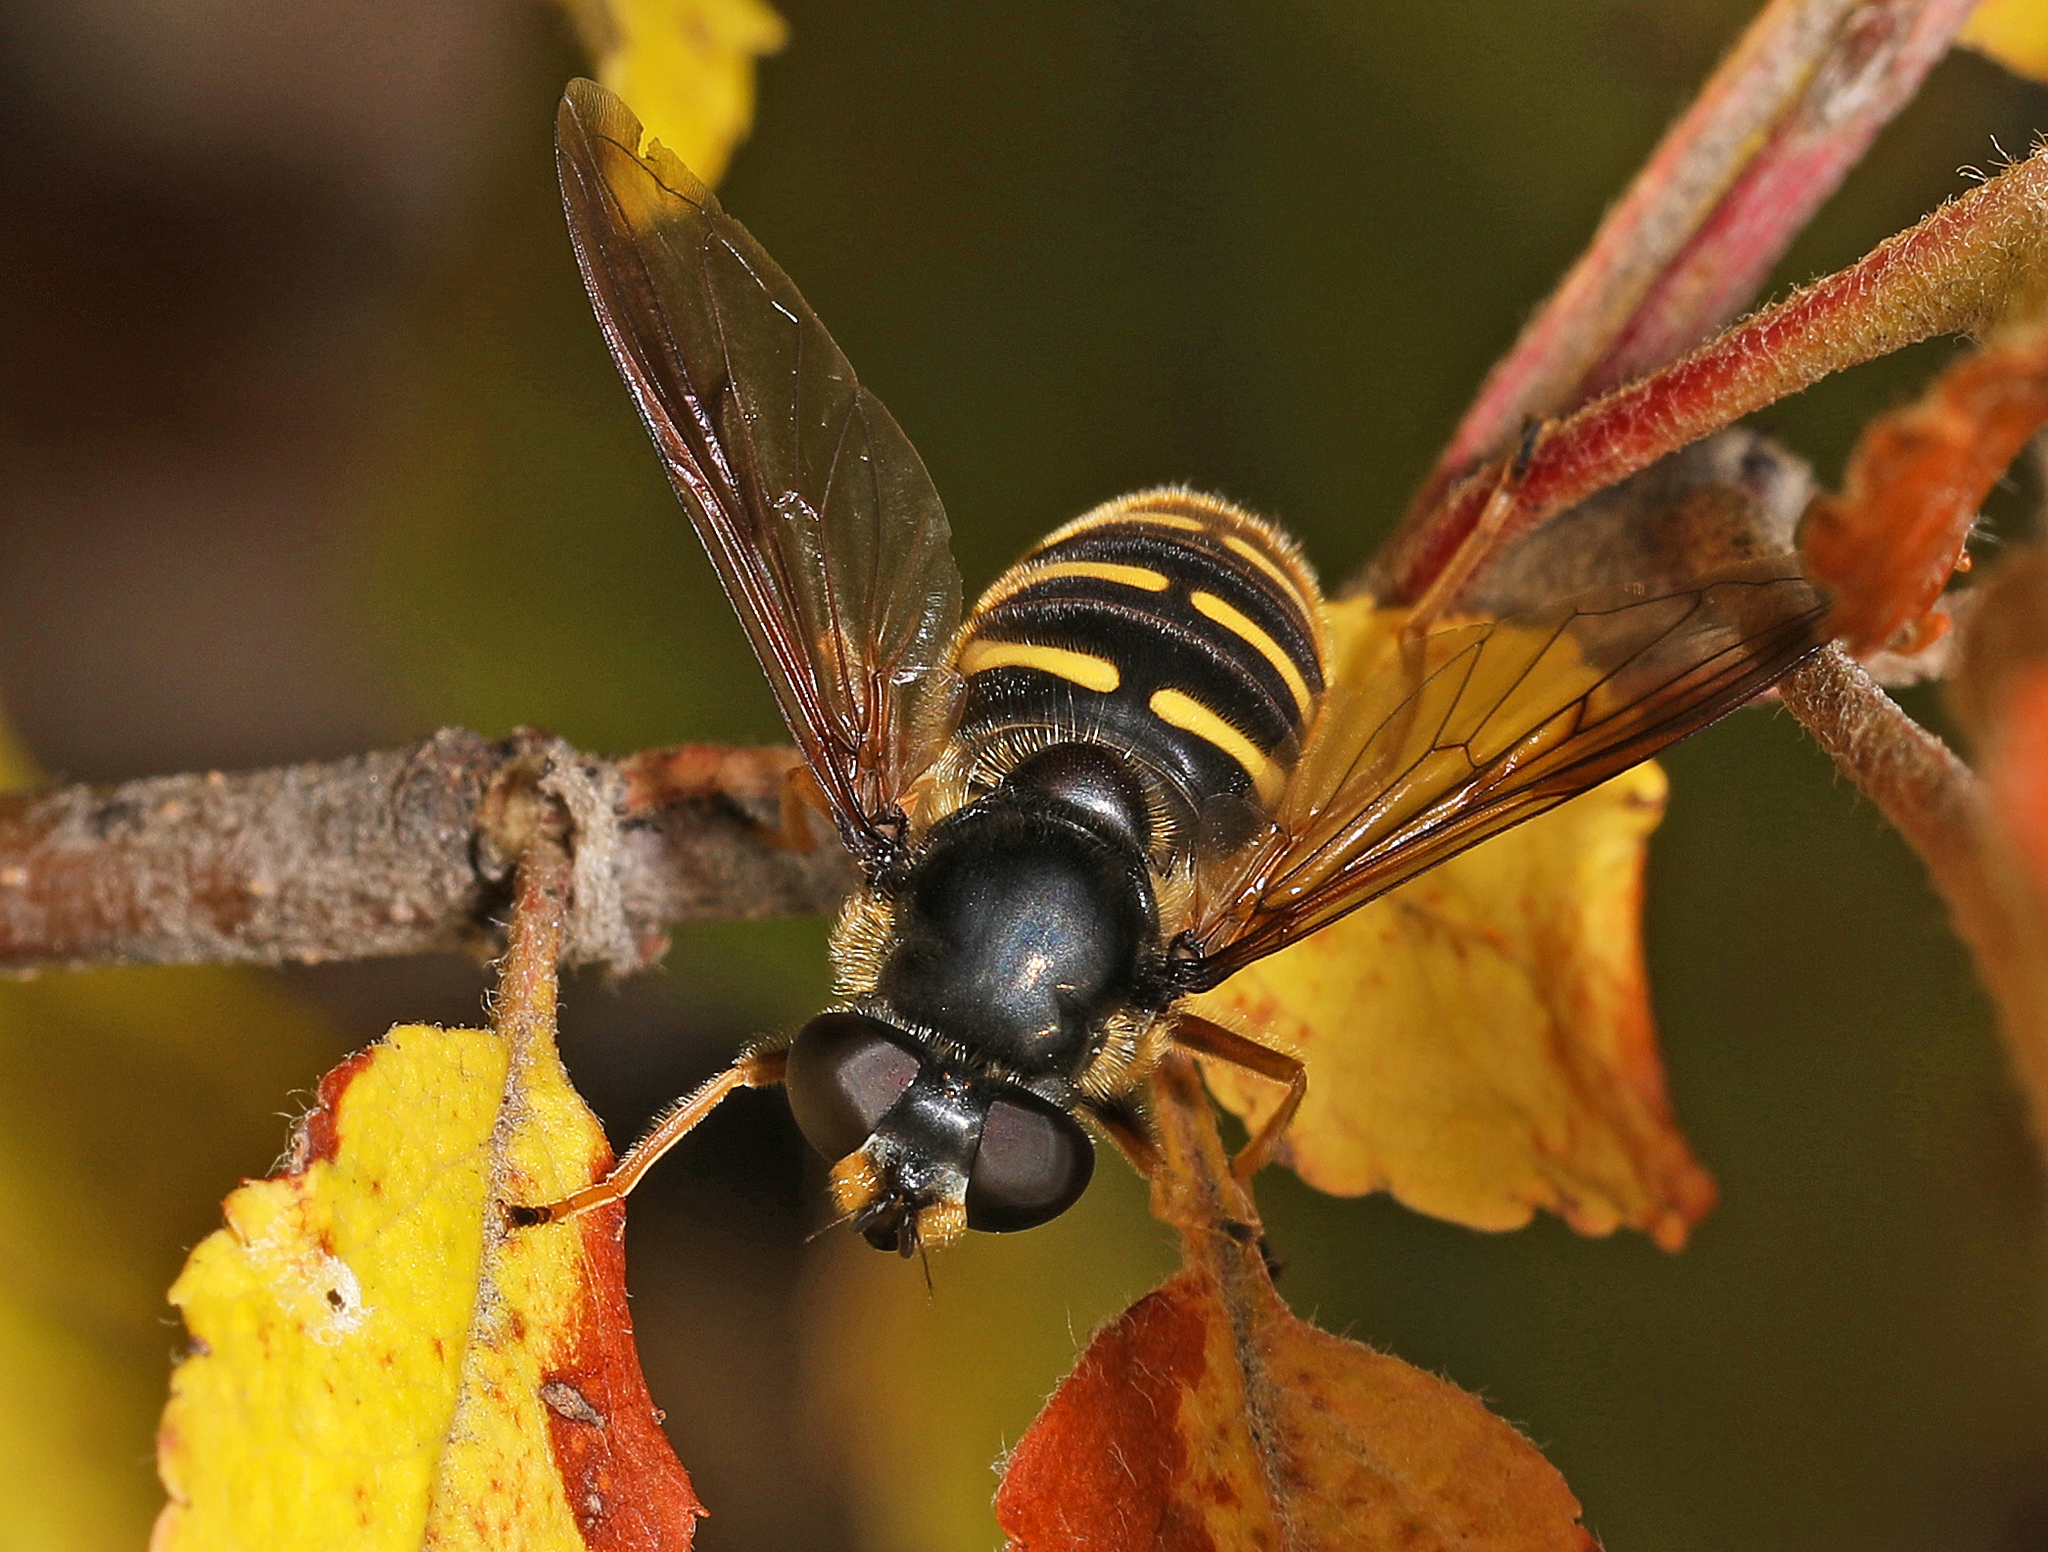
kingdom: Animalia
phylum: Arthropoda
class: Insecta
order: Diptera
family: Syrphidae
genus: Sericomyia
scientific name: Sericomyia chalcopyga
